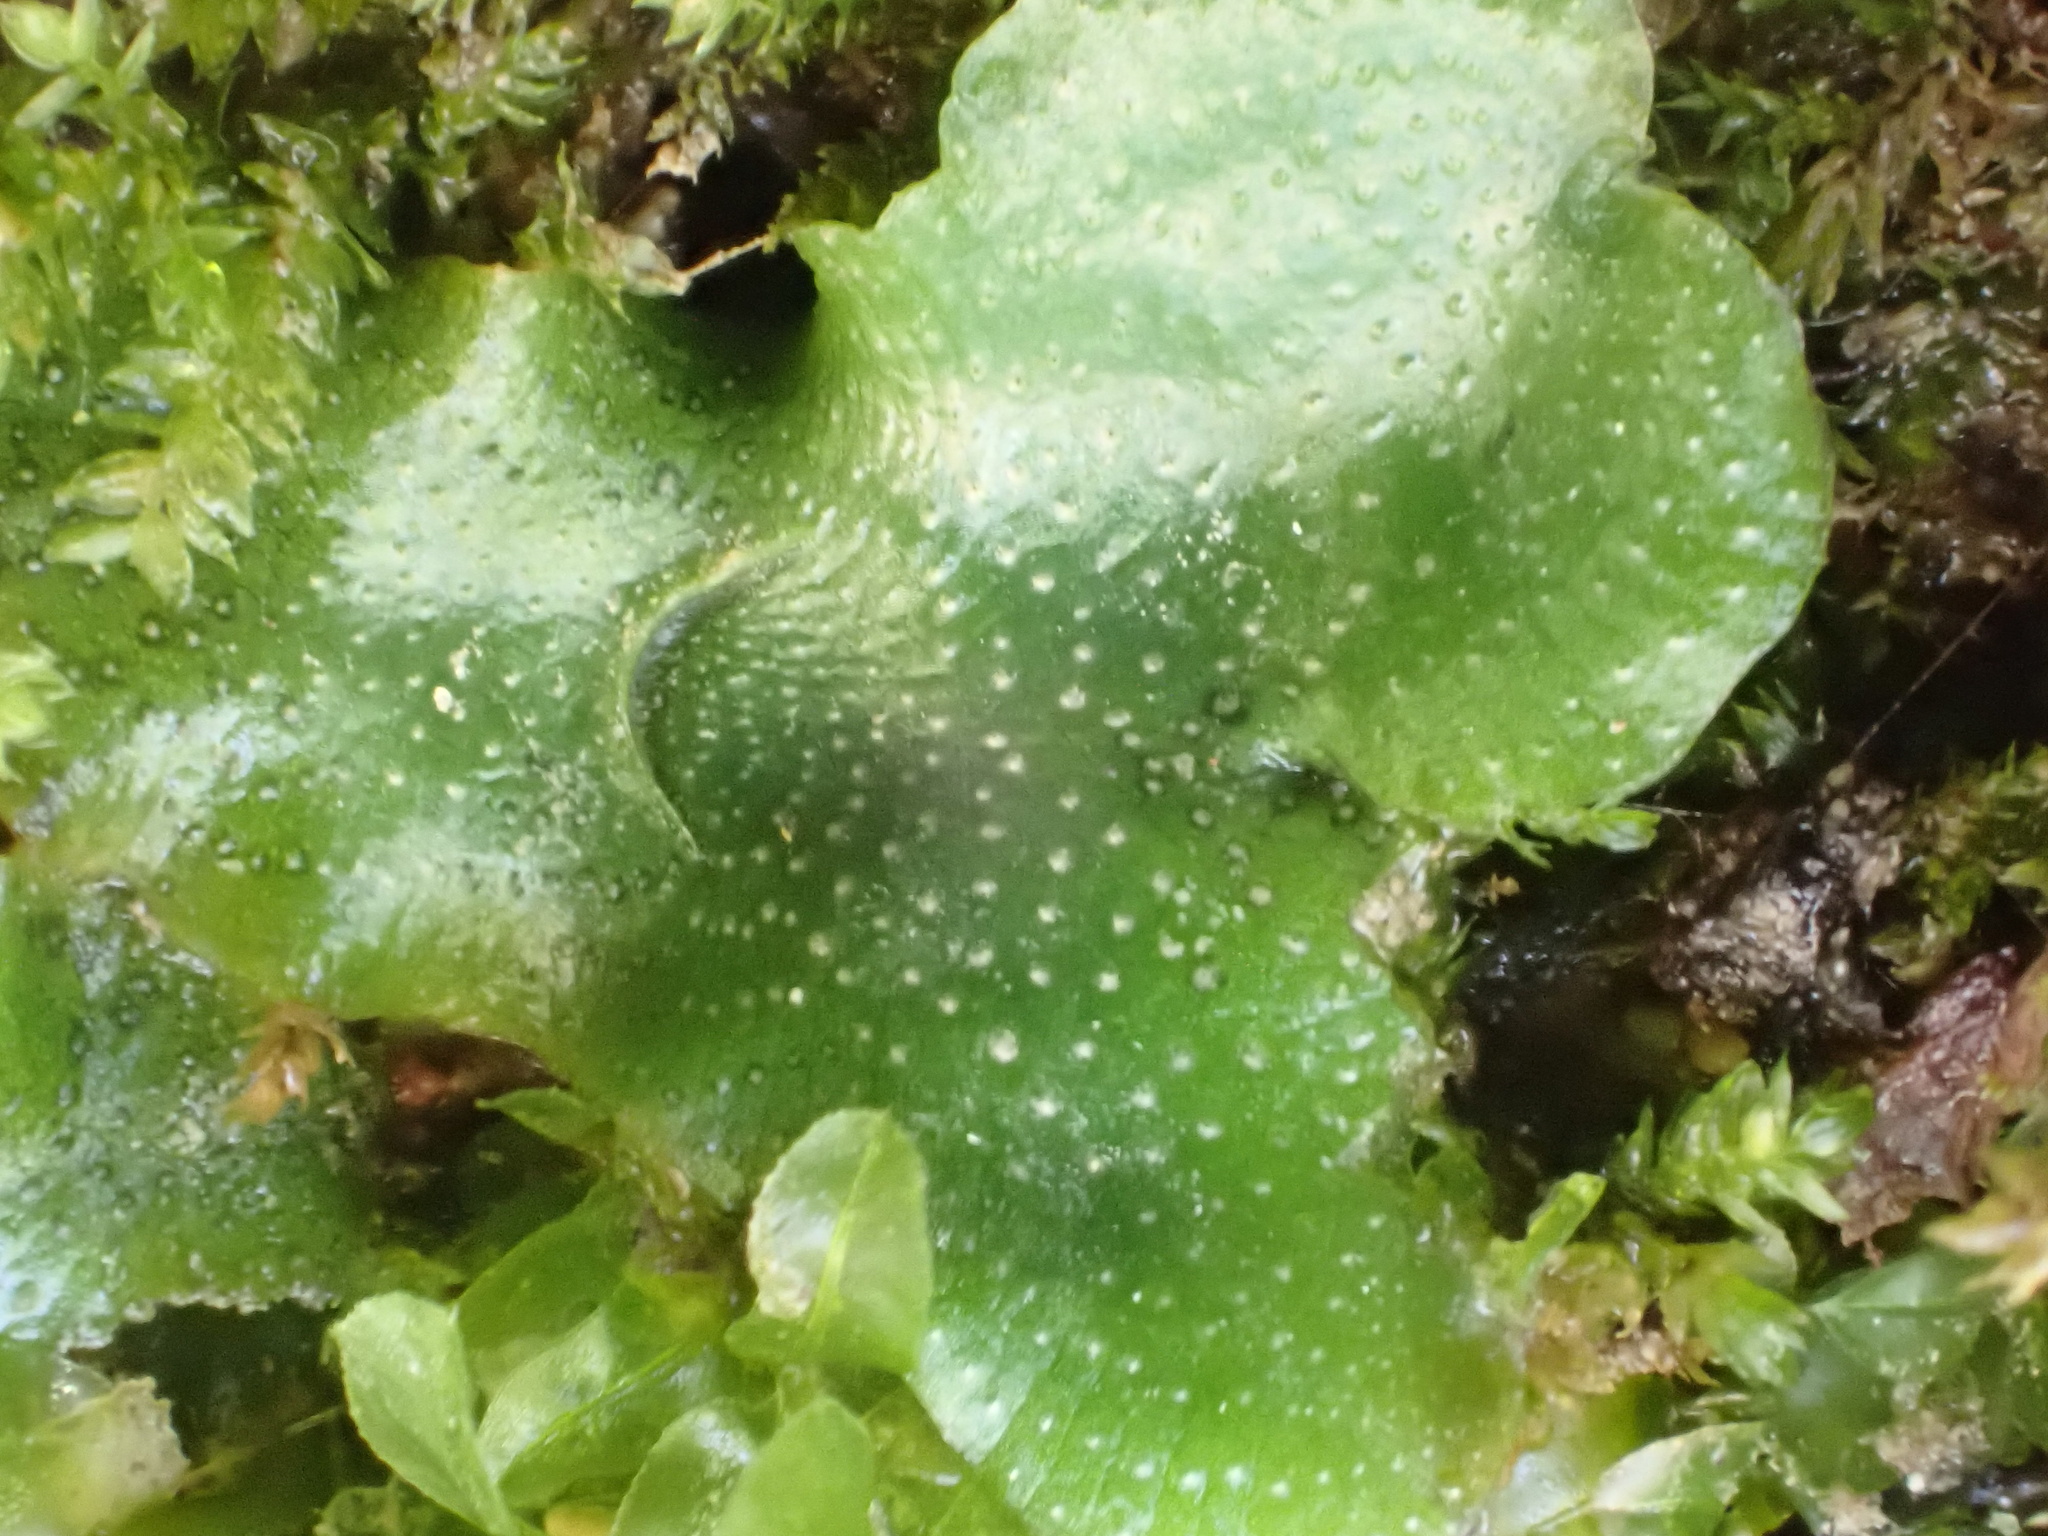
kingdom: Plantae
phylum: Marchantiophyta
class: Marchantiopsida
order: Lunulariales
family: Lunulariaceae
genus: Lunularia
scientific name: Lunularia cruciata
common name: Crescent-cup liverwort
